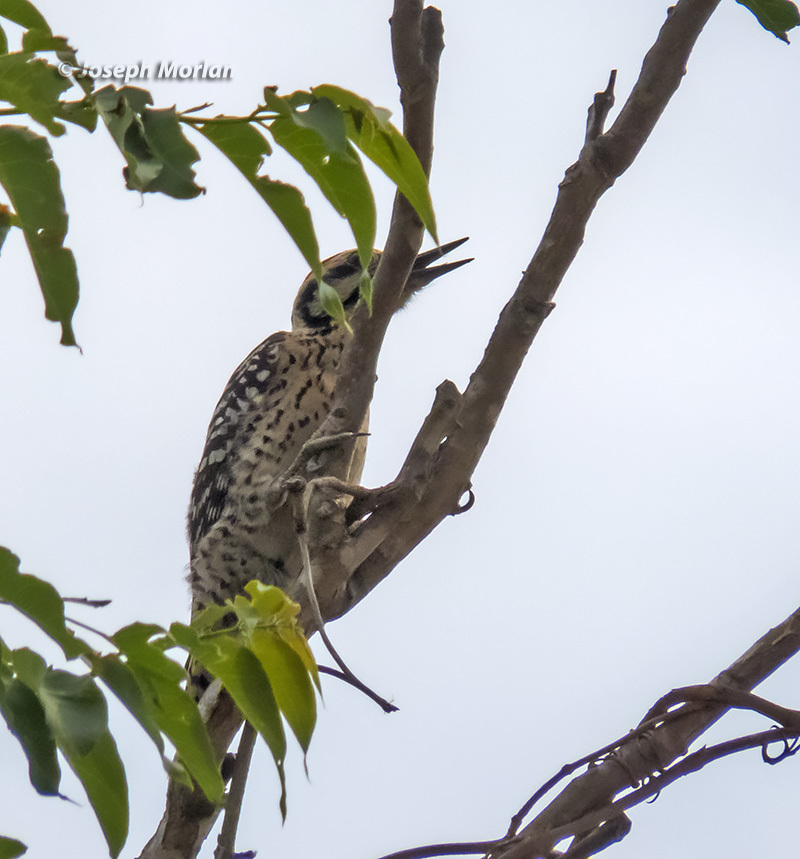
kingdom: Animalia
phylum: Chordata
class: Aves
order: Piciformes
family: Picidae
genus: Dryobates
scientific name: Dryobates scalaris
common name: Ladder-backed woodpecker
